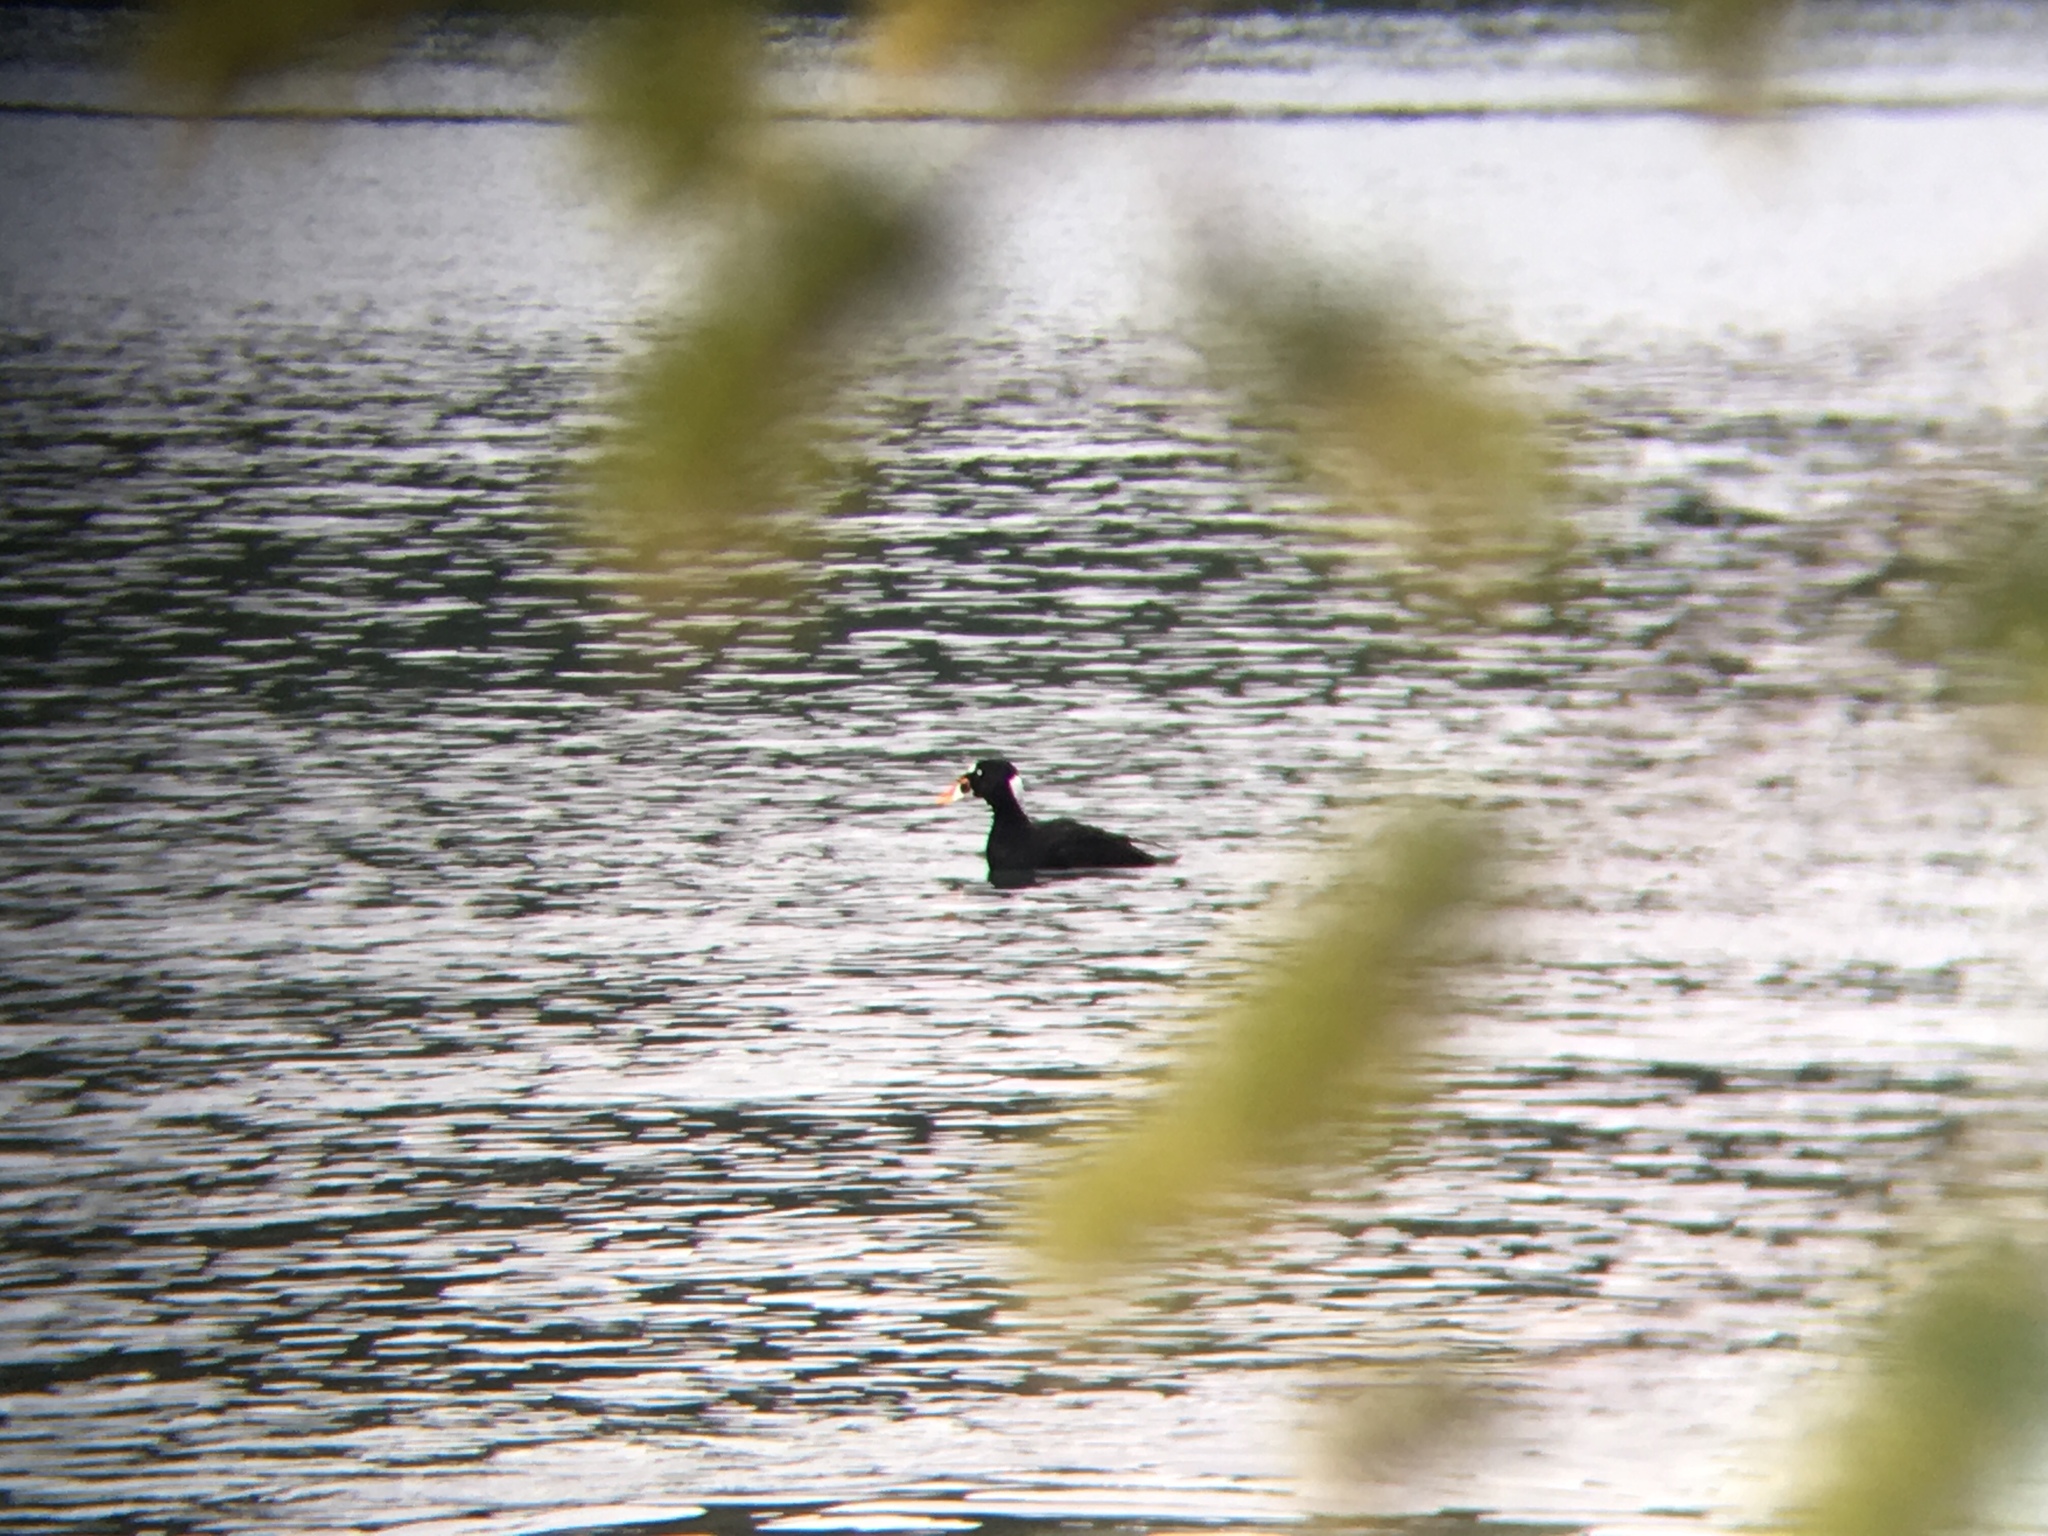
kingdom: Animalia
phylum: Chordata
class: Aves
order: Anseriformes
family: Anatidae
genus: Melanitta
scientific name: Melanitta perspicillata
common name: Surf scoter
